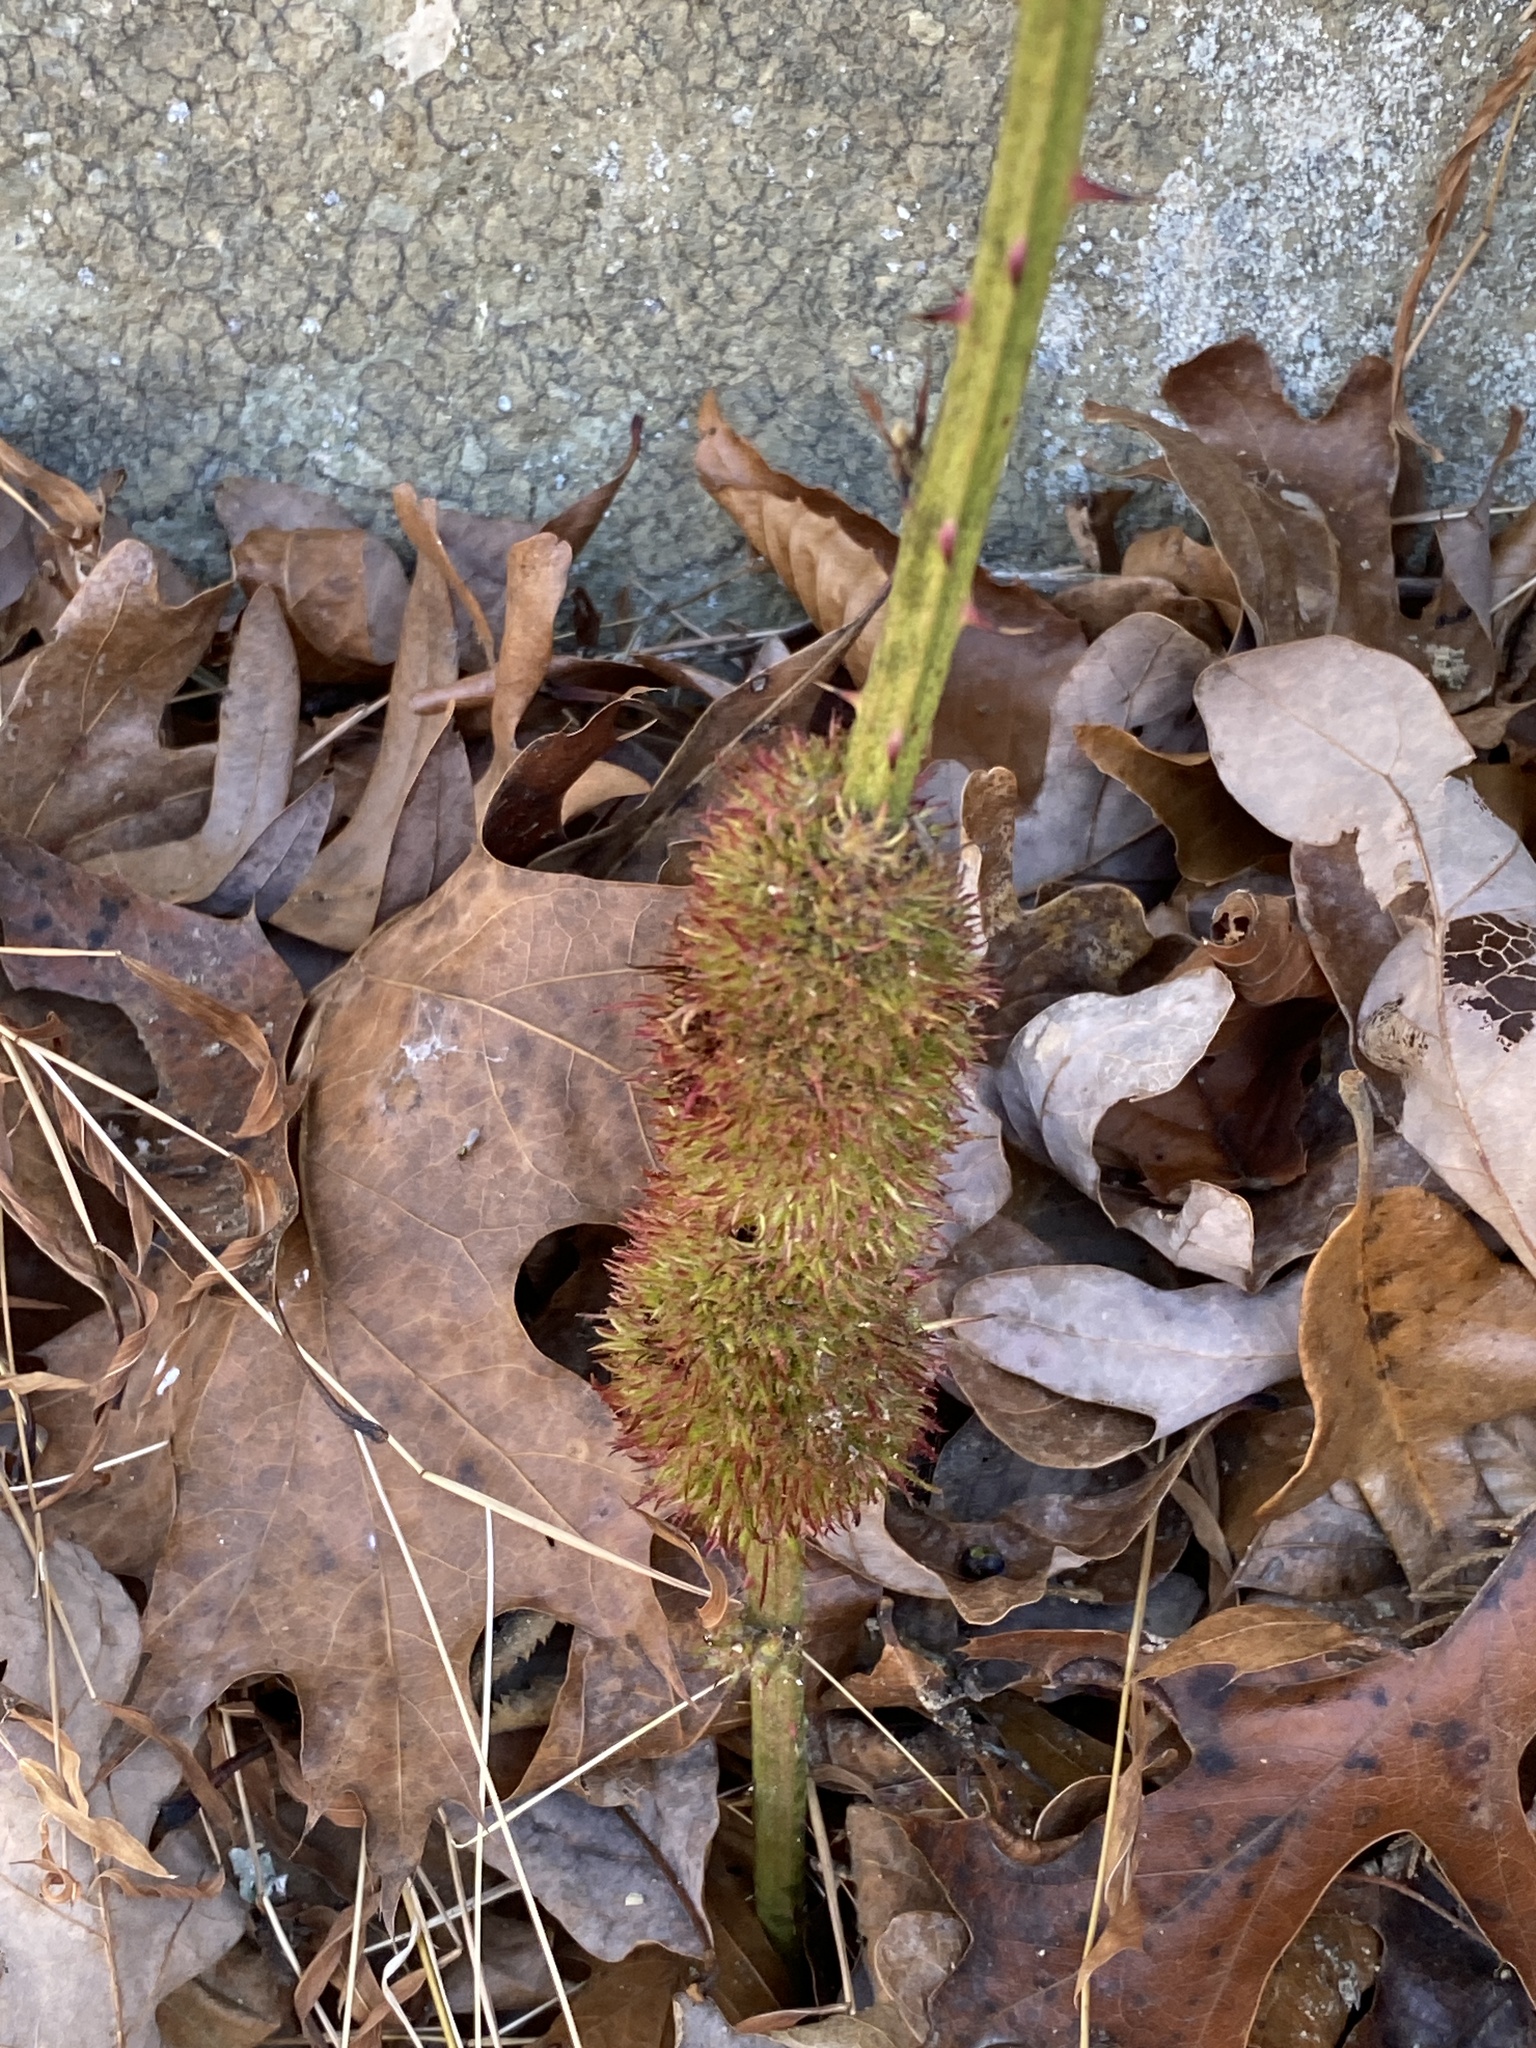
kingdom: Animalia
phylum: Arthropoda
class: Insecta
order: Hymenoptera
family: Cynipidae
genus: Diastrophus
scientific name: Diastrophus
